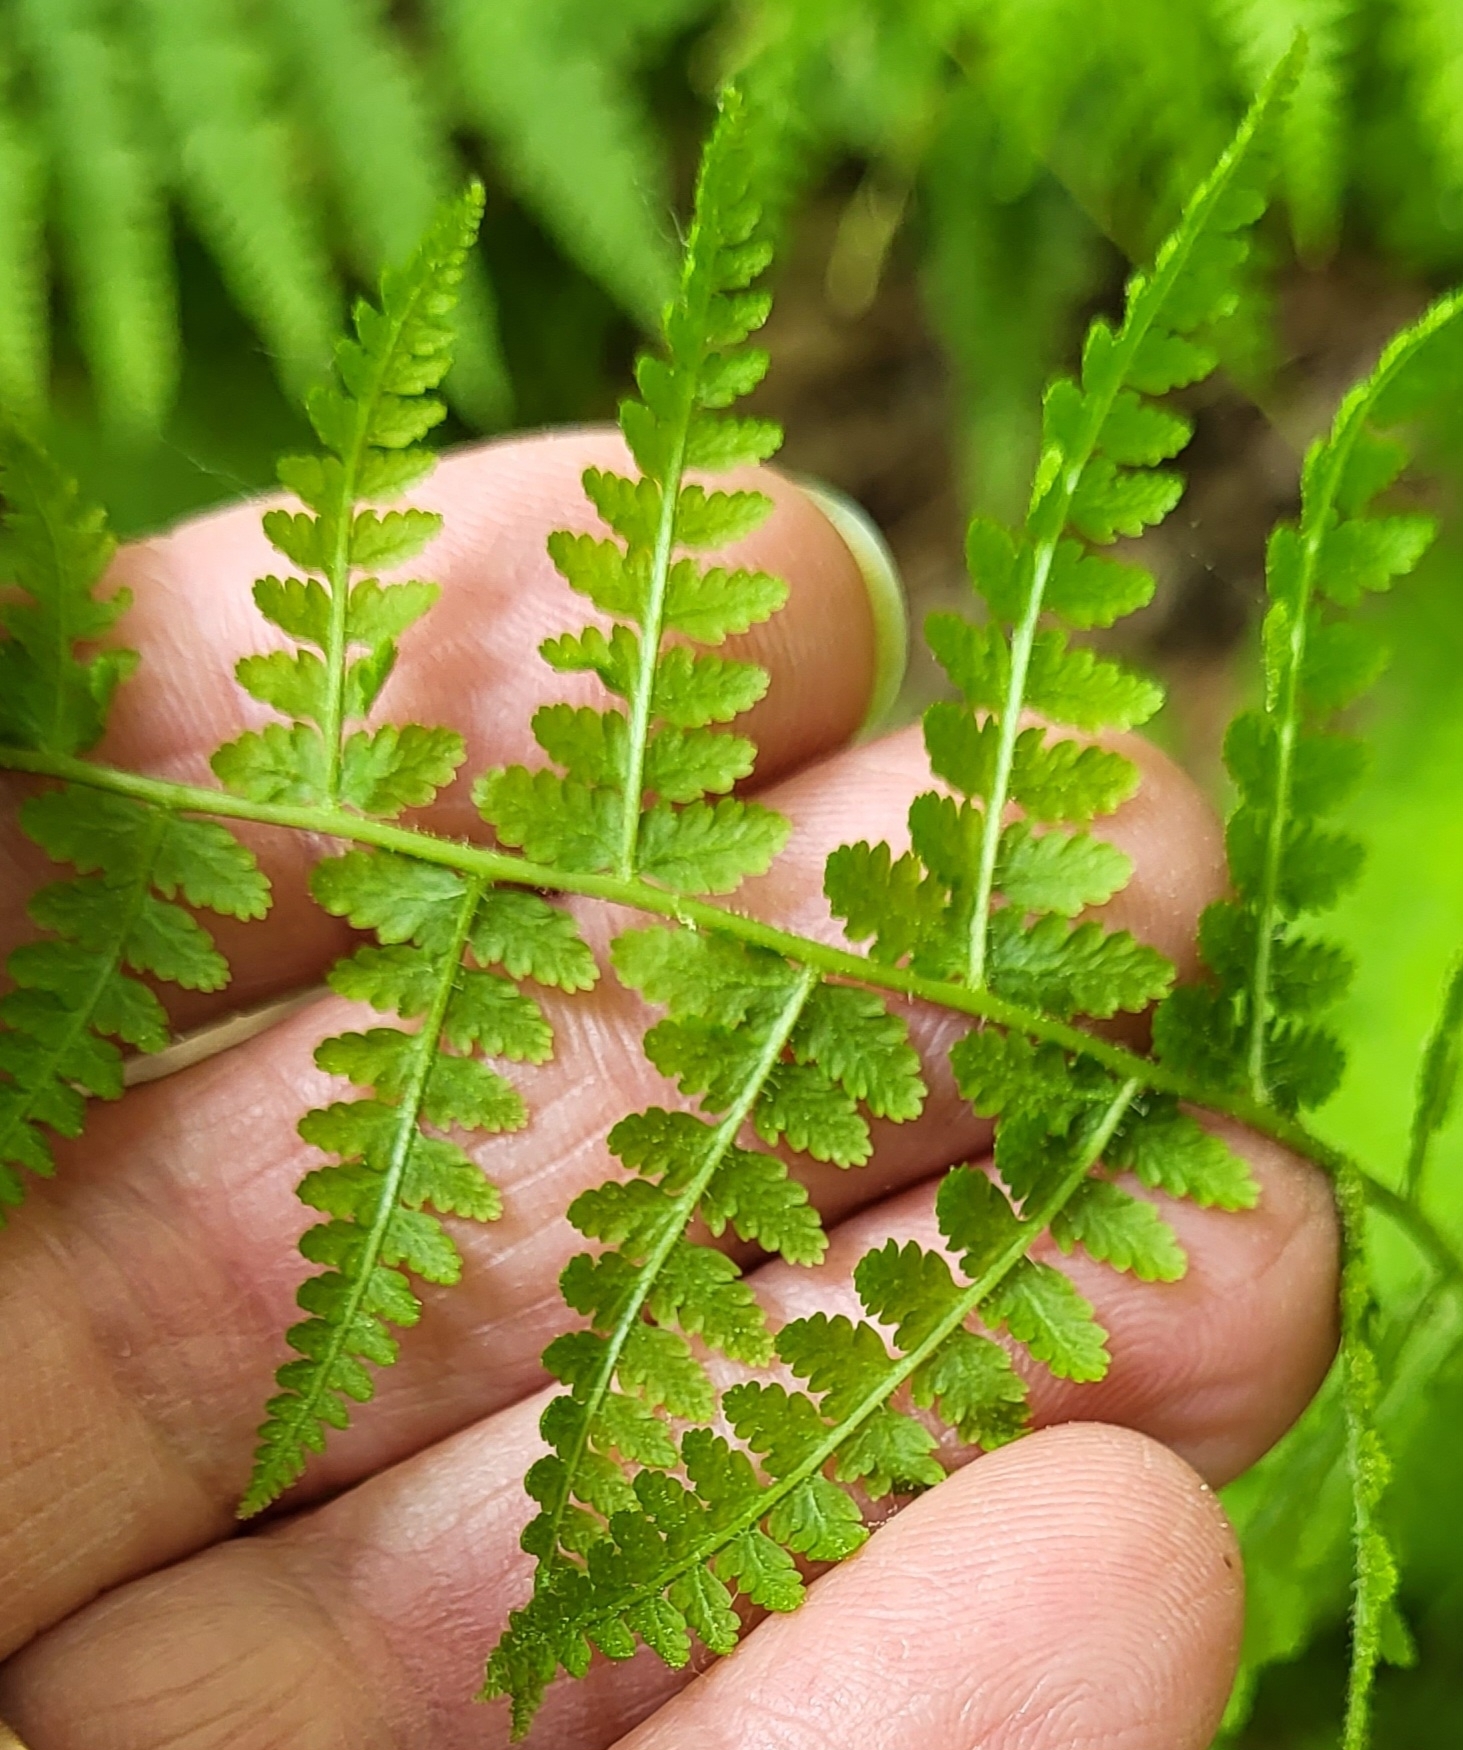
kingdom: Plantae
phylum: Tracheophyta
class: Polypodiopsida
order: Polypodiales
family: Dennstaedtiaceae
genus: Sitobolium
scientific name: Sitobolium punctilobum
